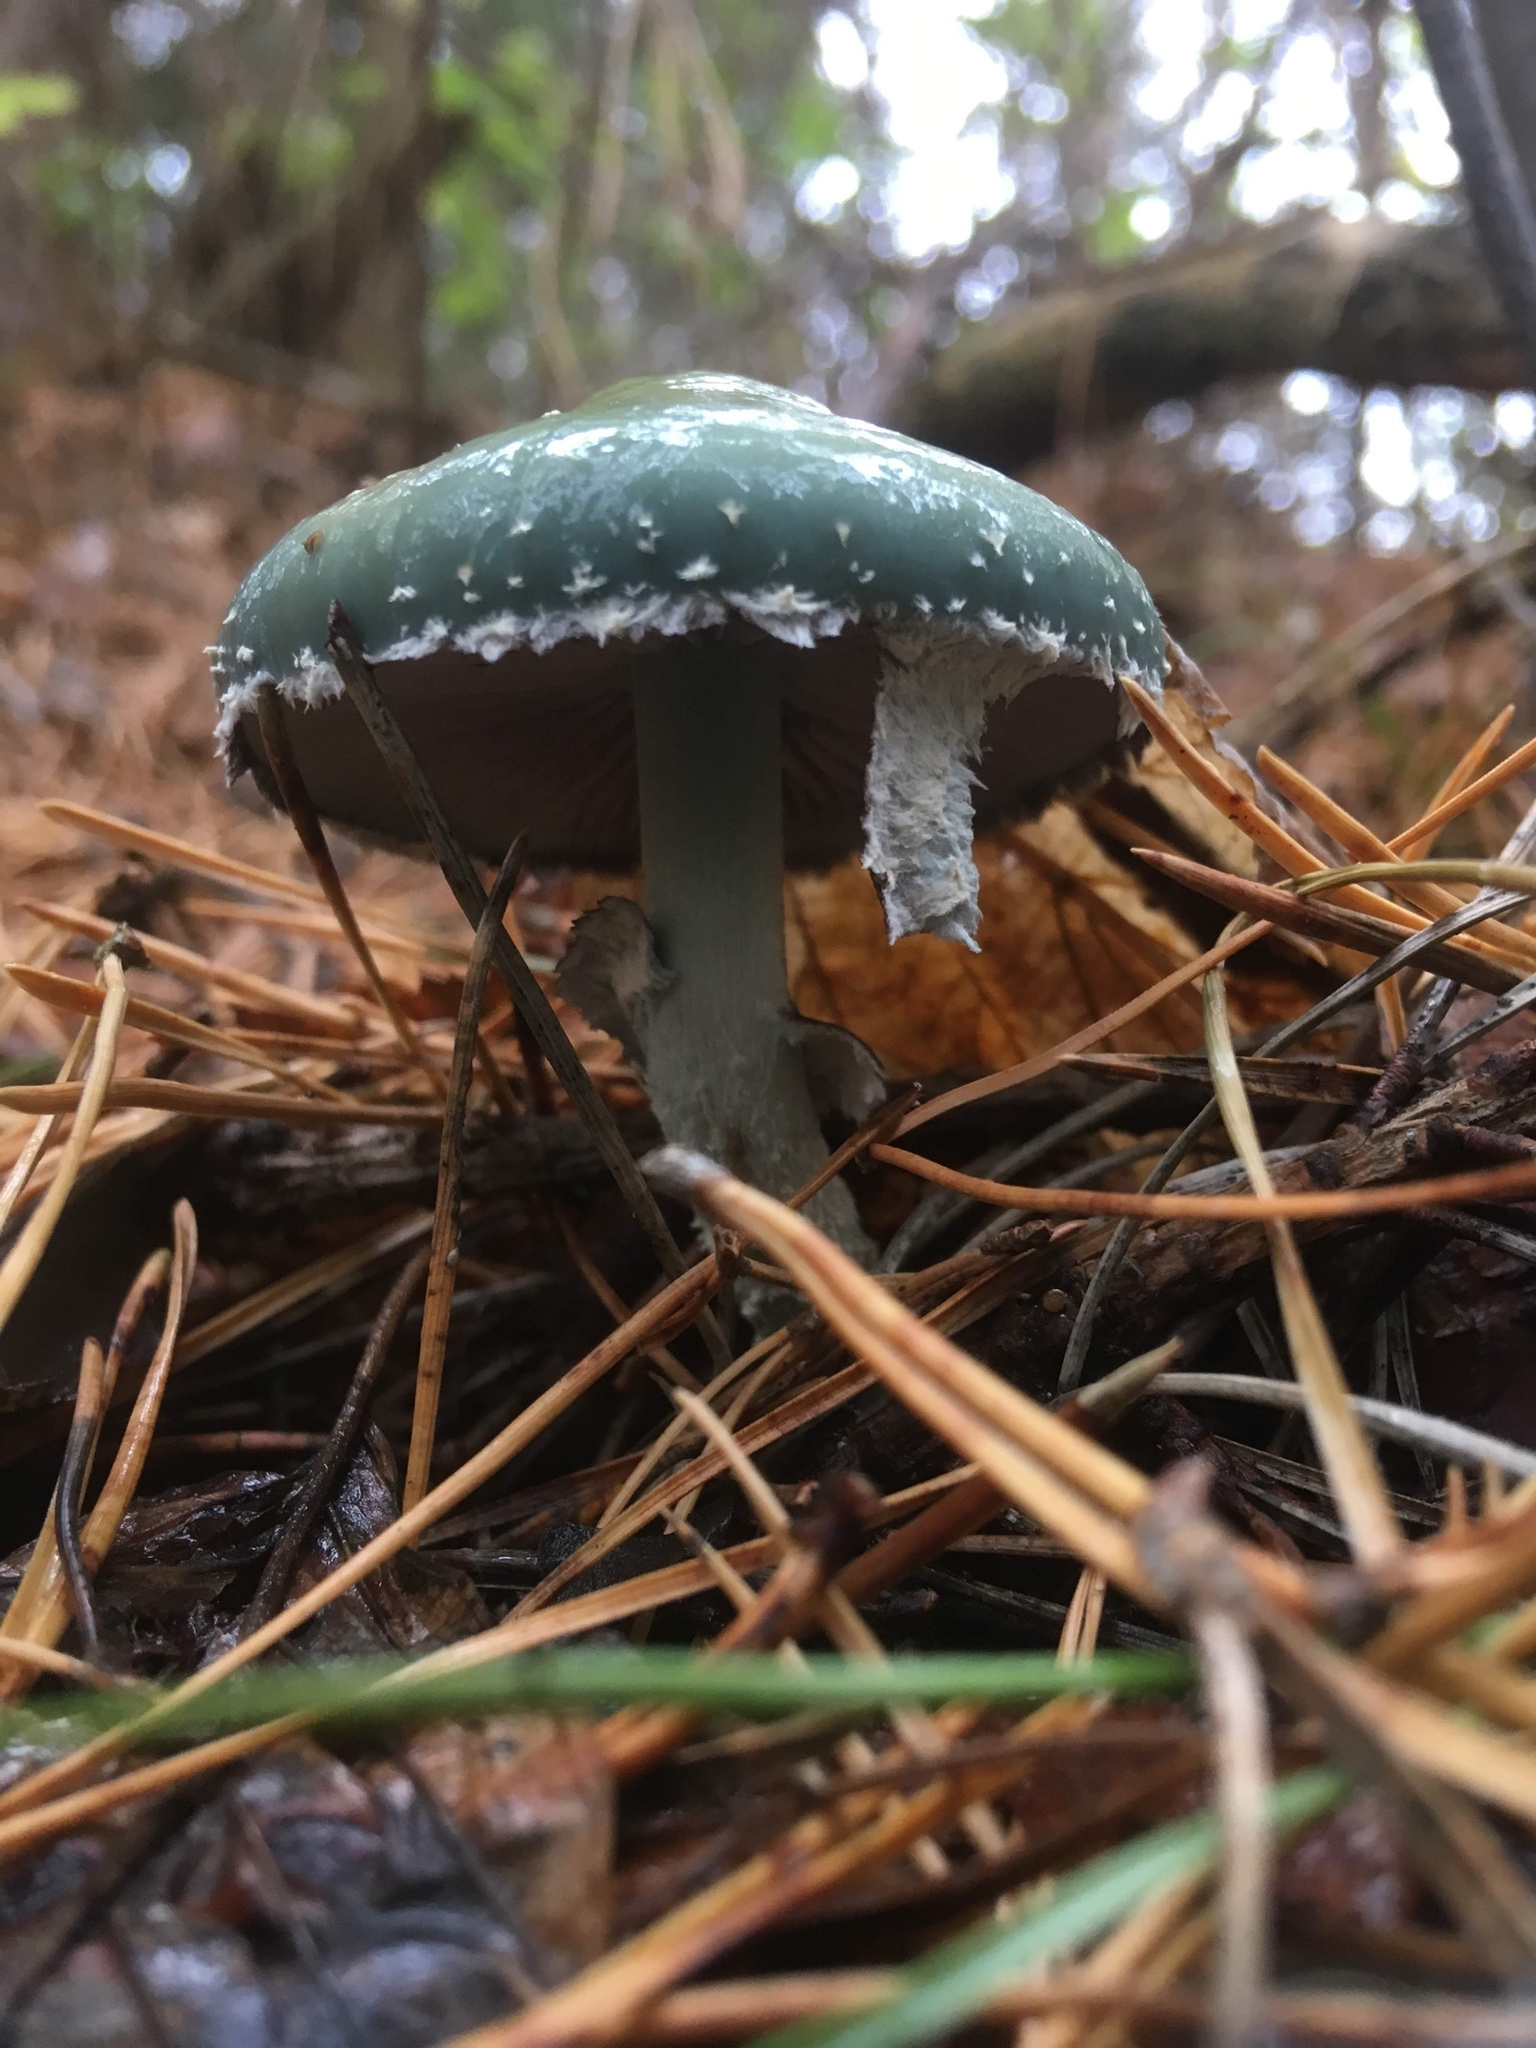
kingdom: Fungi
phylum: Basidiomycota
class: Agaricomycetes
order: Agaricales
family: Strophariaceae
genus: Stropharia
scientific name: Stropharia aeruginosa
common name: Verdigris roundhead
